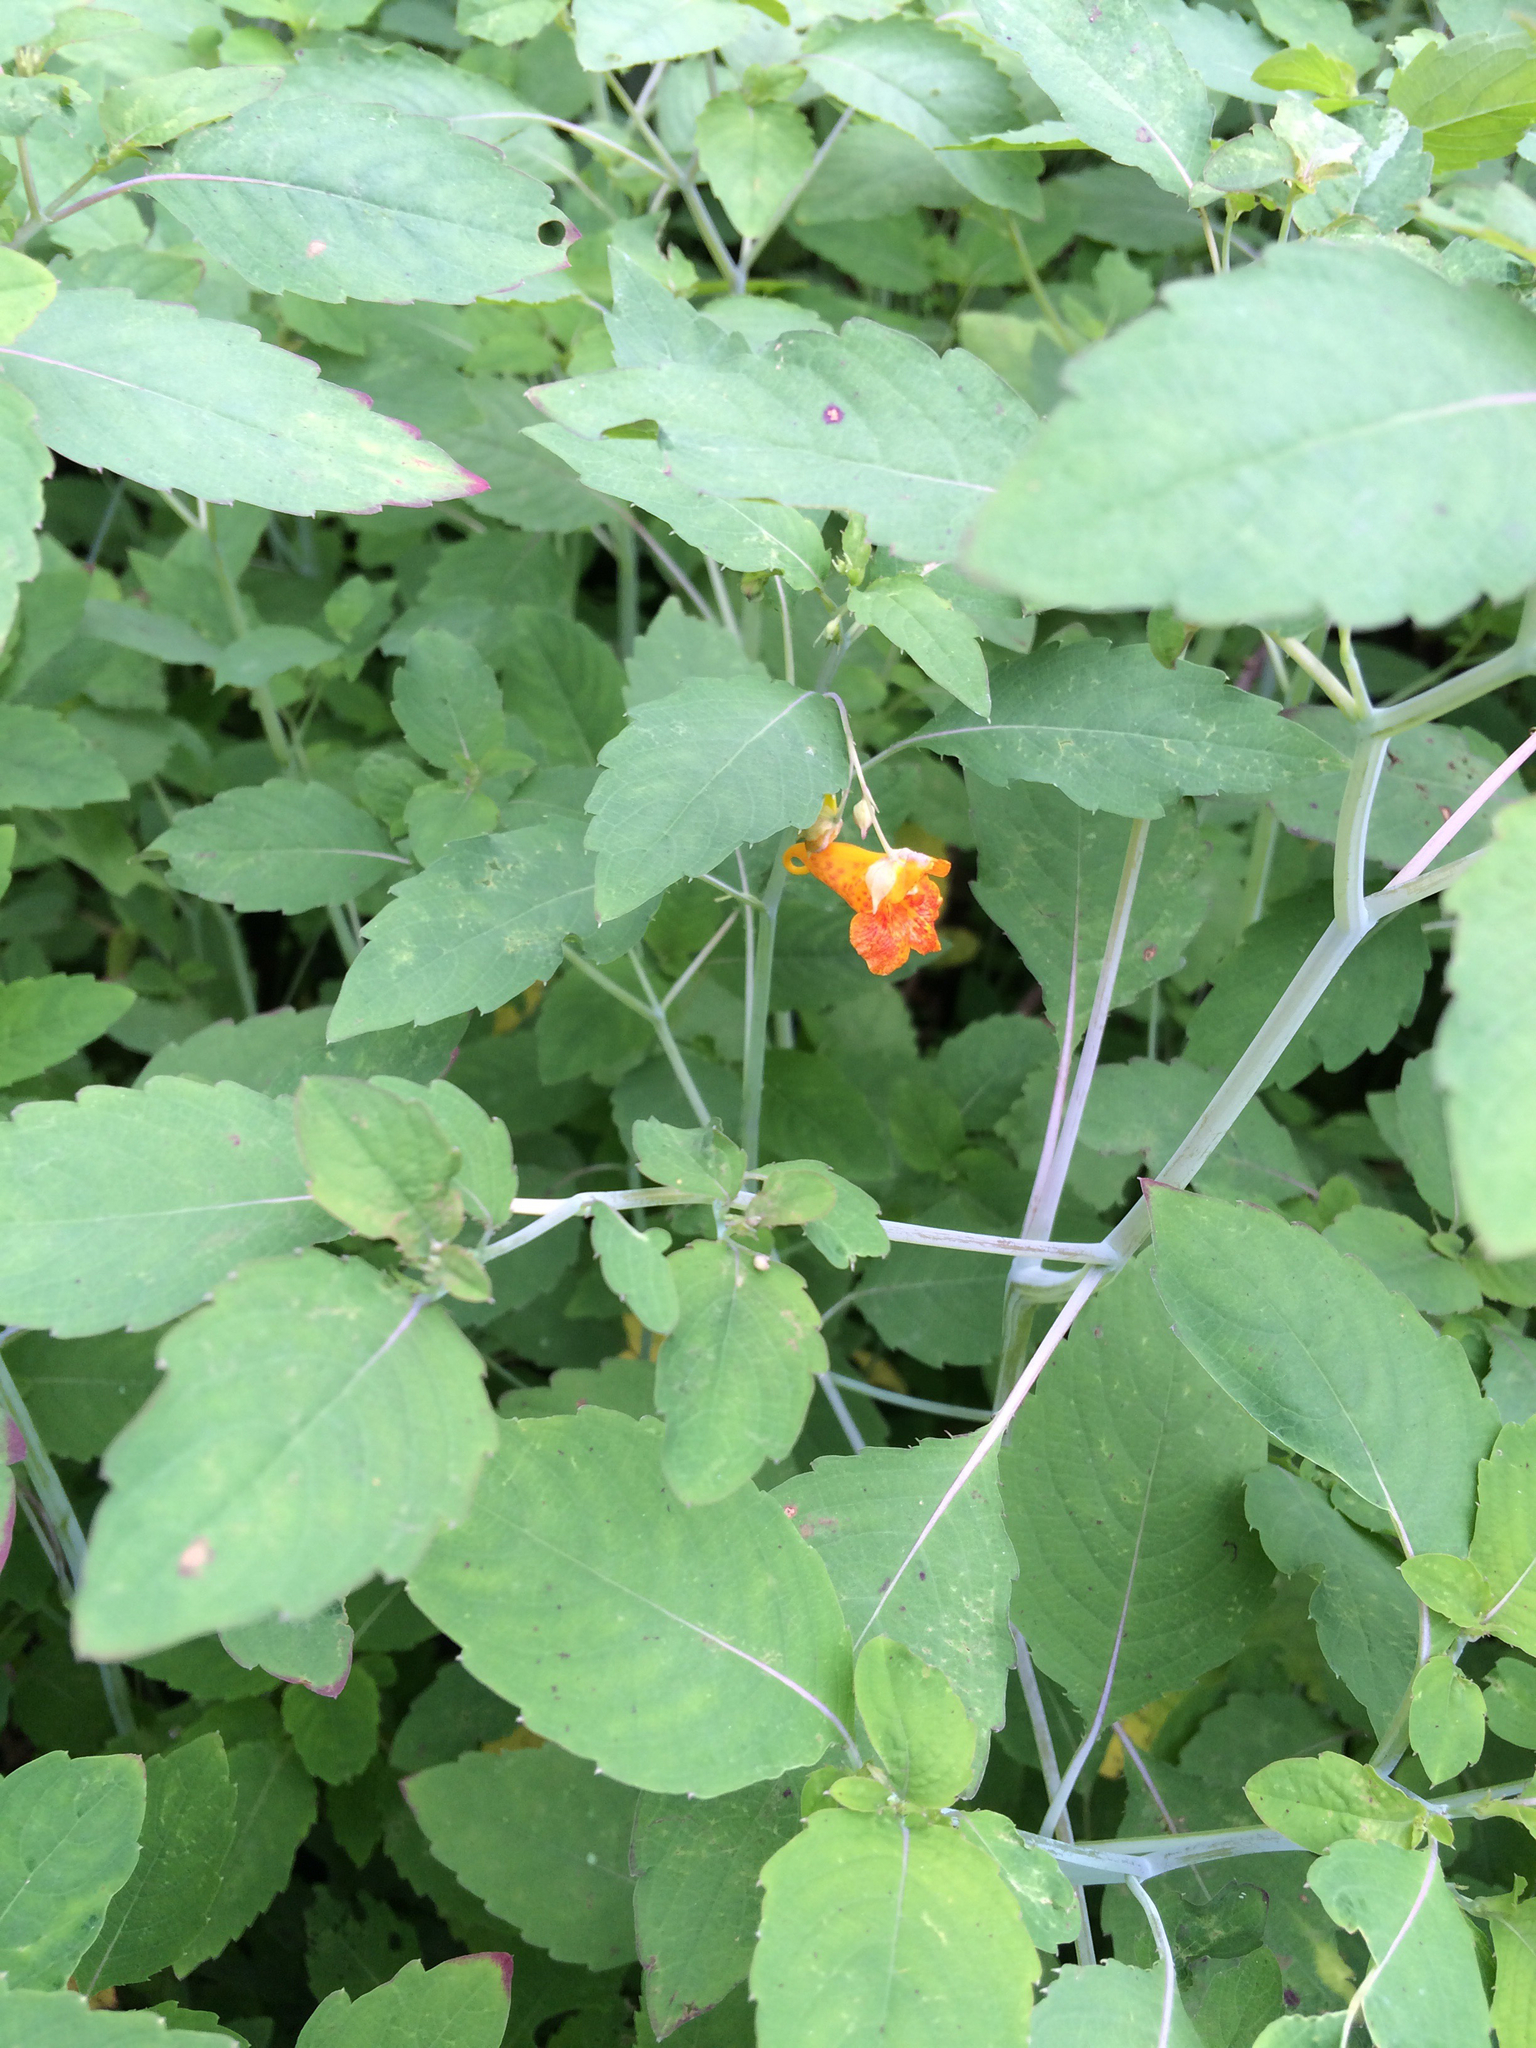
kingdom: Plantae
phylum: Tracheophyta
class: Magnoliopsida
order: Ericales
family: Balsaminaceae
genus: Impatiens
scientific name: Impatiens capensis
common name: Orange balsam
